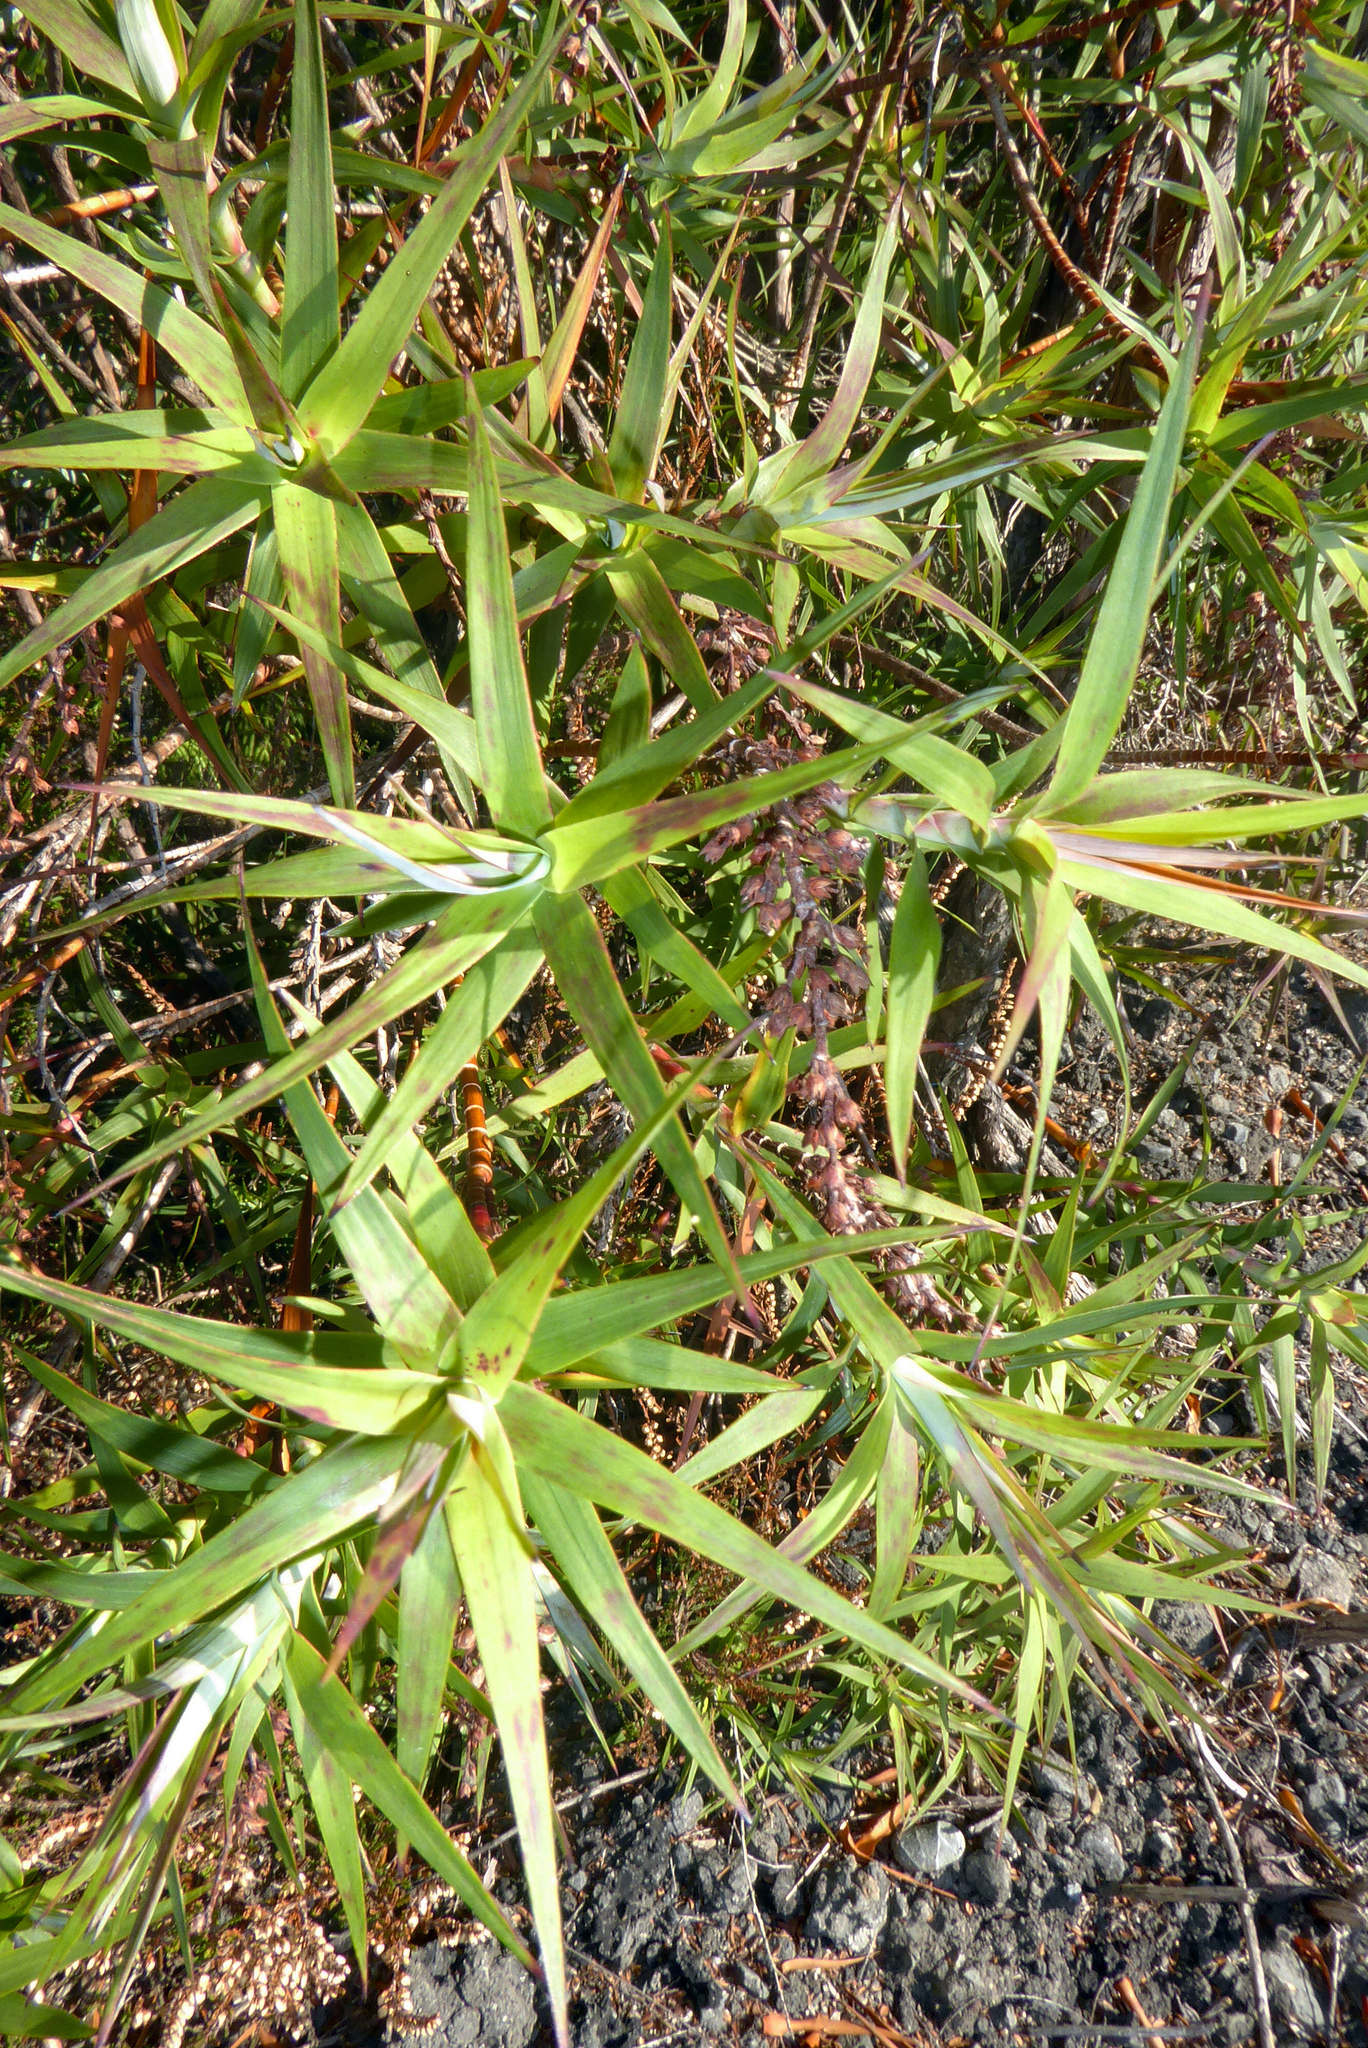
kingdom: Plantae
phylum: Tracheophyta
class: Magnoliopsida
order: Ericales
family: Ericaceae
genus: Dracophyllum
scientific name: Dracophyllum strictum
